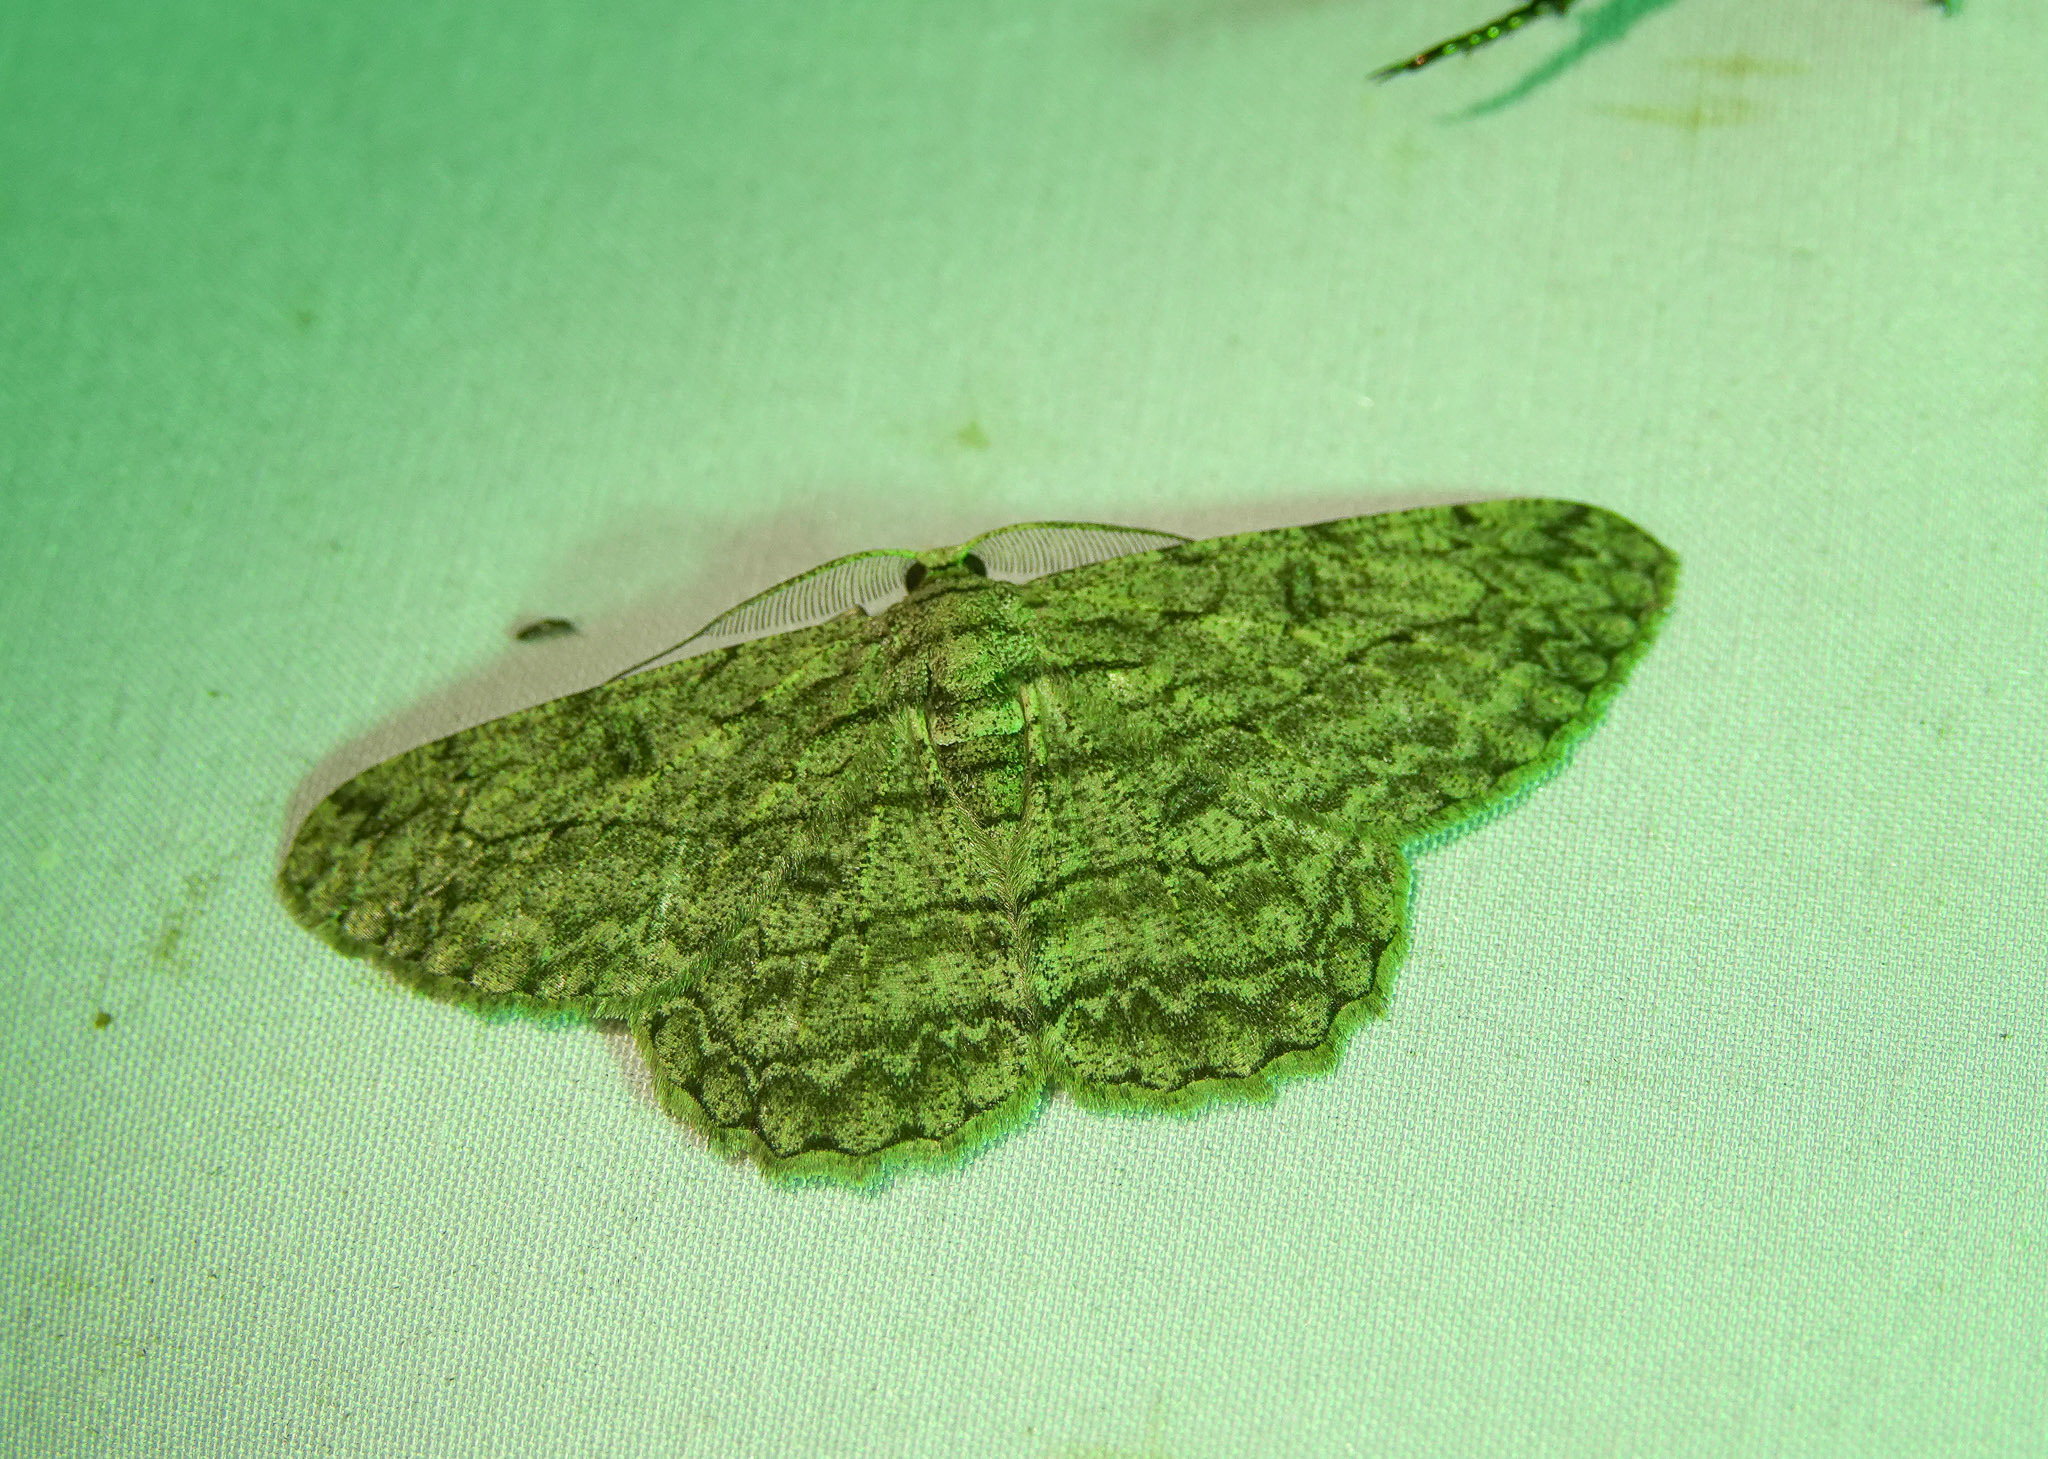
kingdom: Animalia
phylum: Arthropoda
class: Insecta
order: Lepidoptera
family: Geometridae
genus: Hypomecis
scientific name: Hypomecis transcissa
